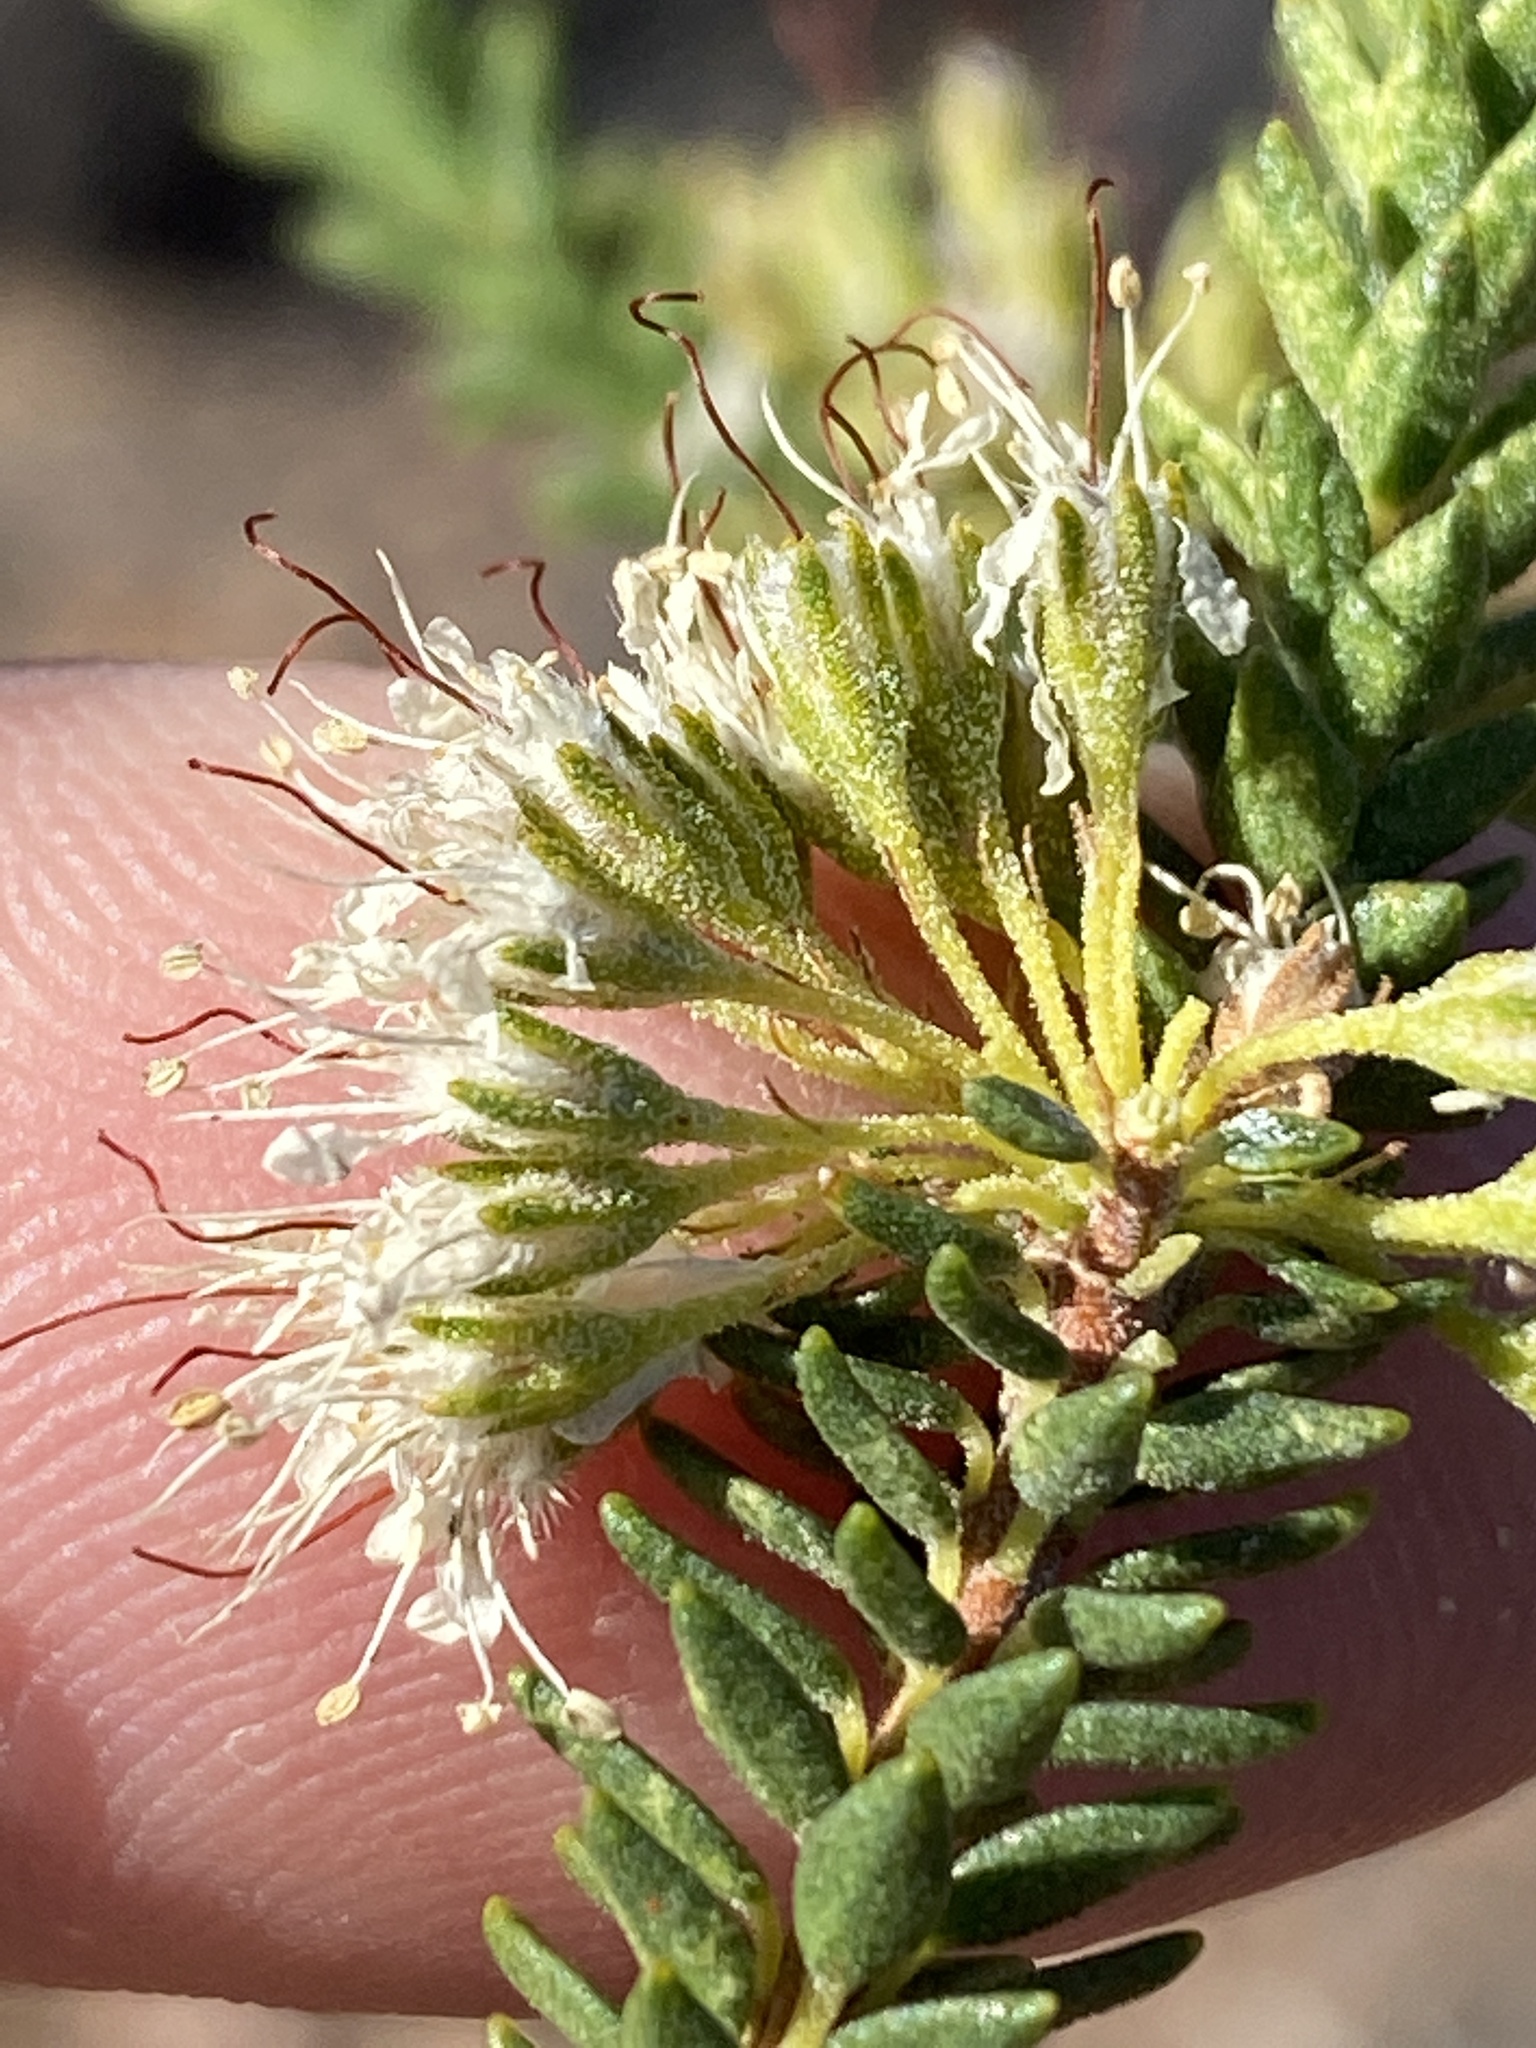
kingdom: Plantae
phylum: Tracheophyta
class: Magnoliopsida
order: Sapindales
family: Rutaceae
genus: Agathosma
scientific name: Agathosma roodebergensis
